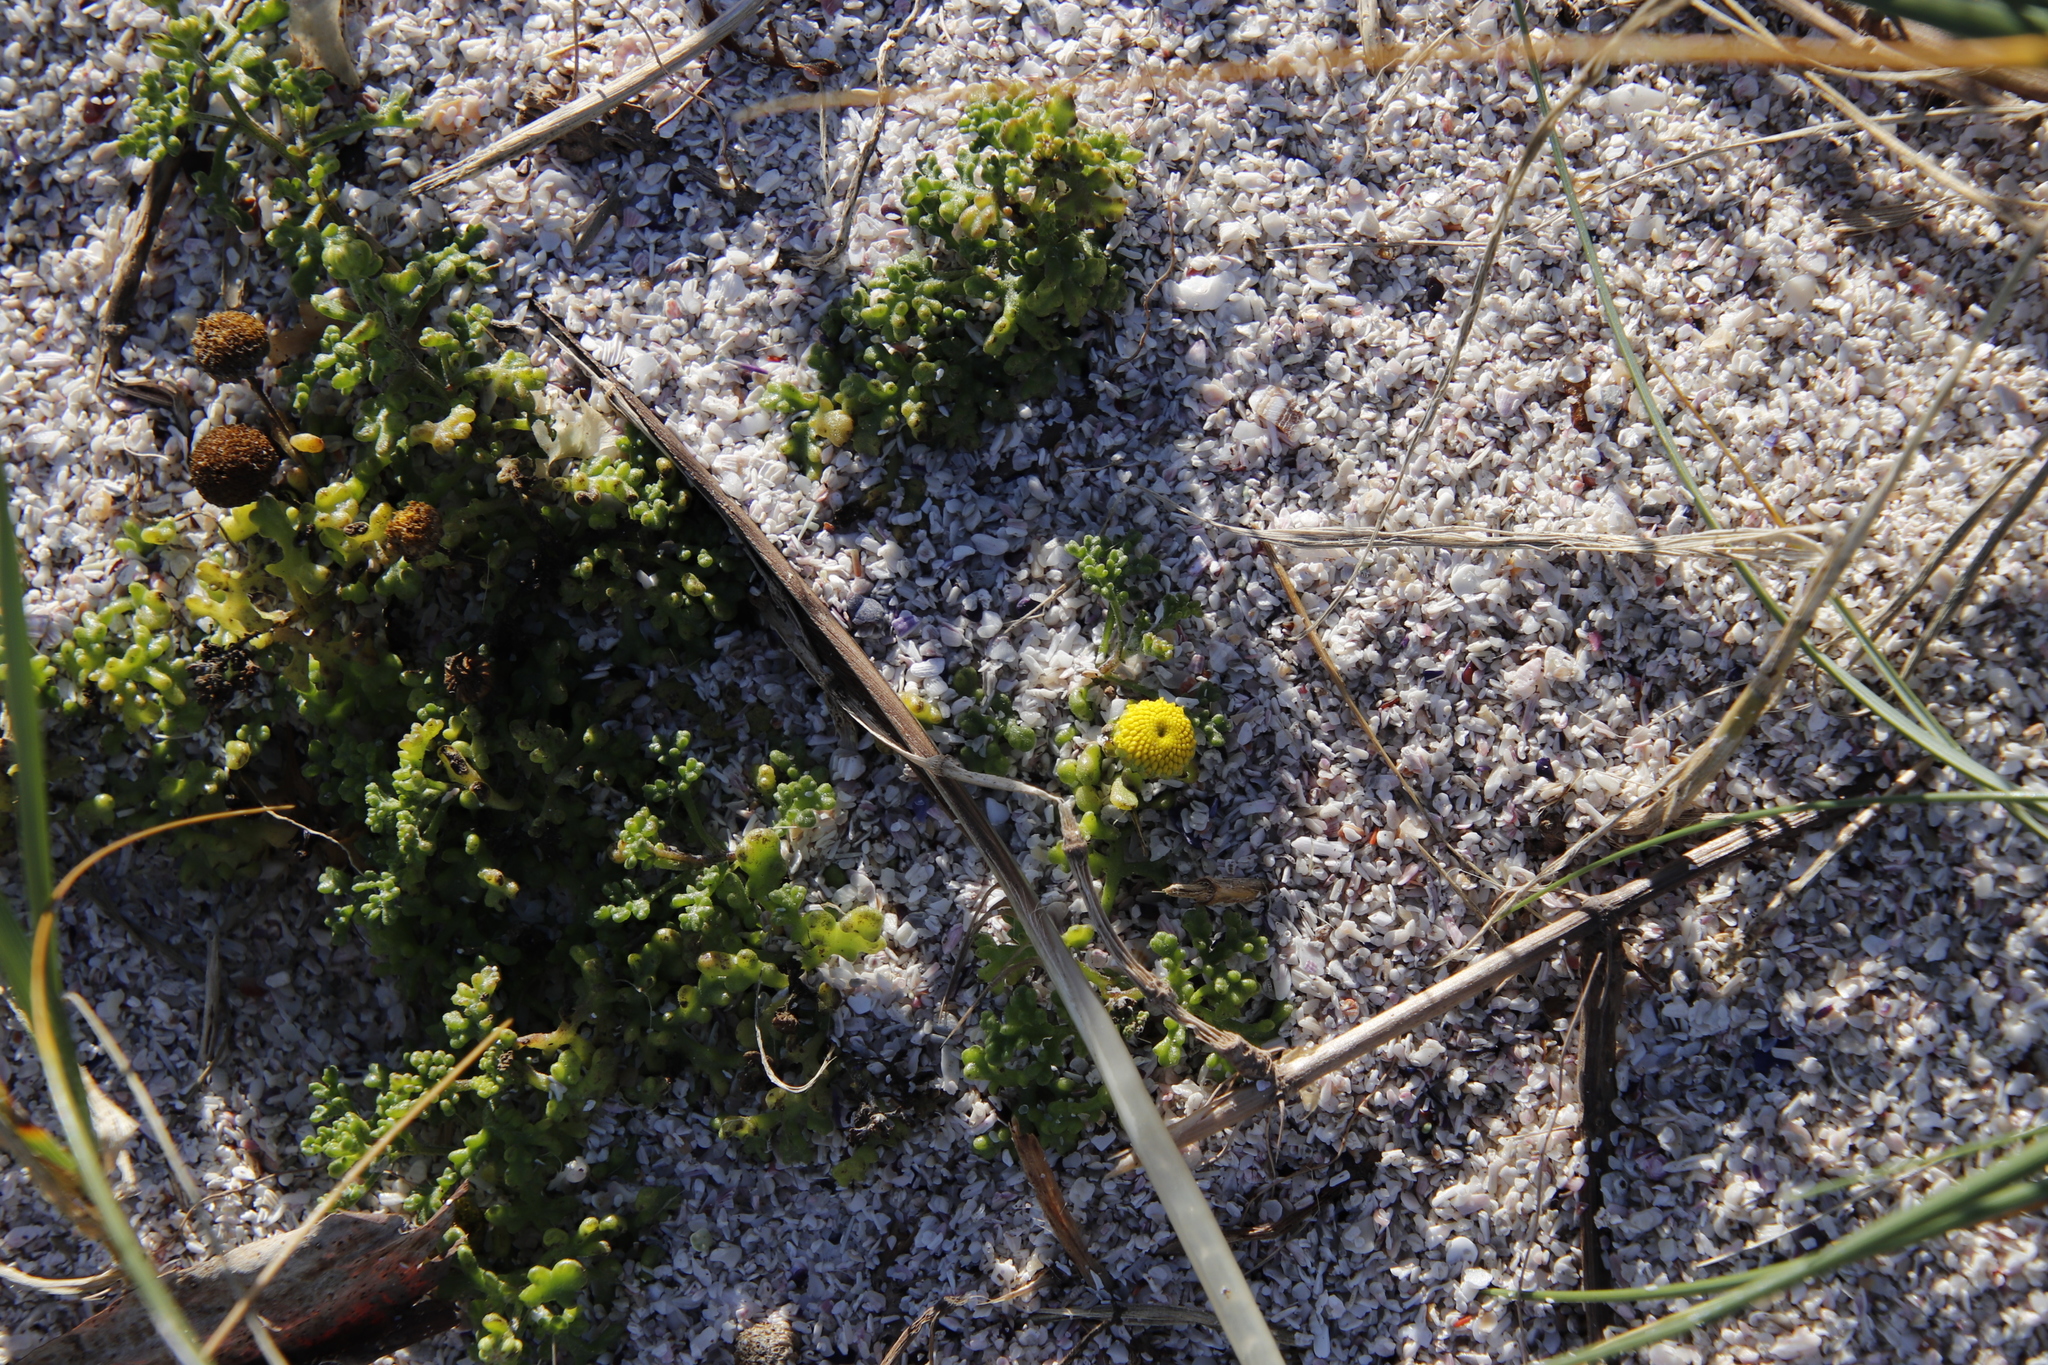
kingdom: Plantae
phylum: Tracheophyta
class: Magnoliopsida
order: Asterales
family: Asteraceae
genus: Oncosiphon
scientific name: Oncosiphon sabulosus
